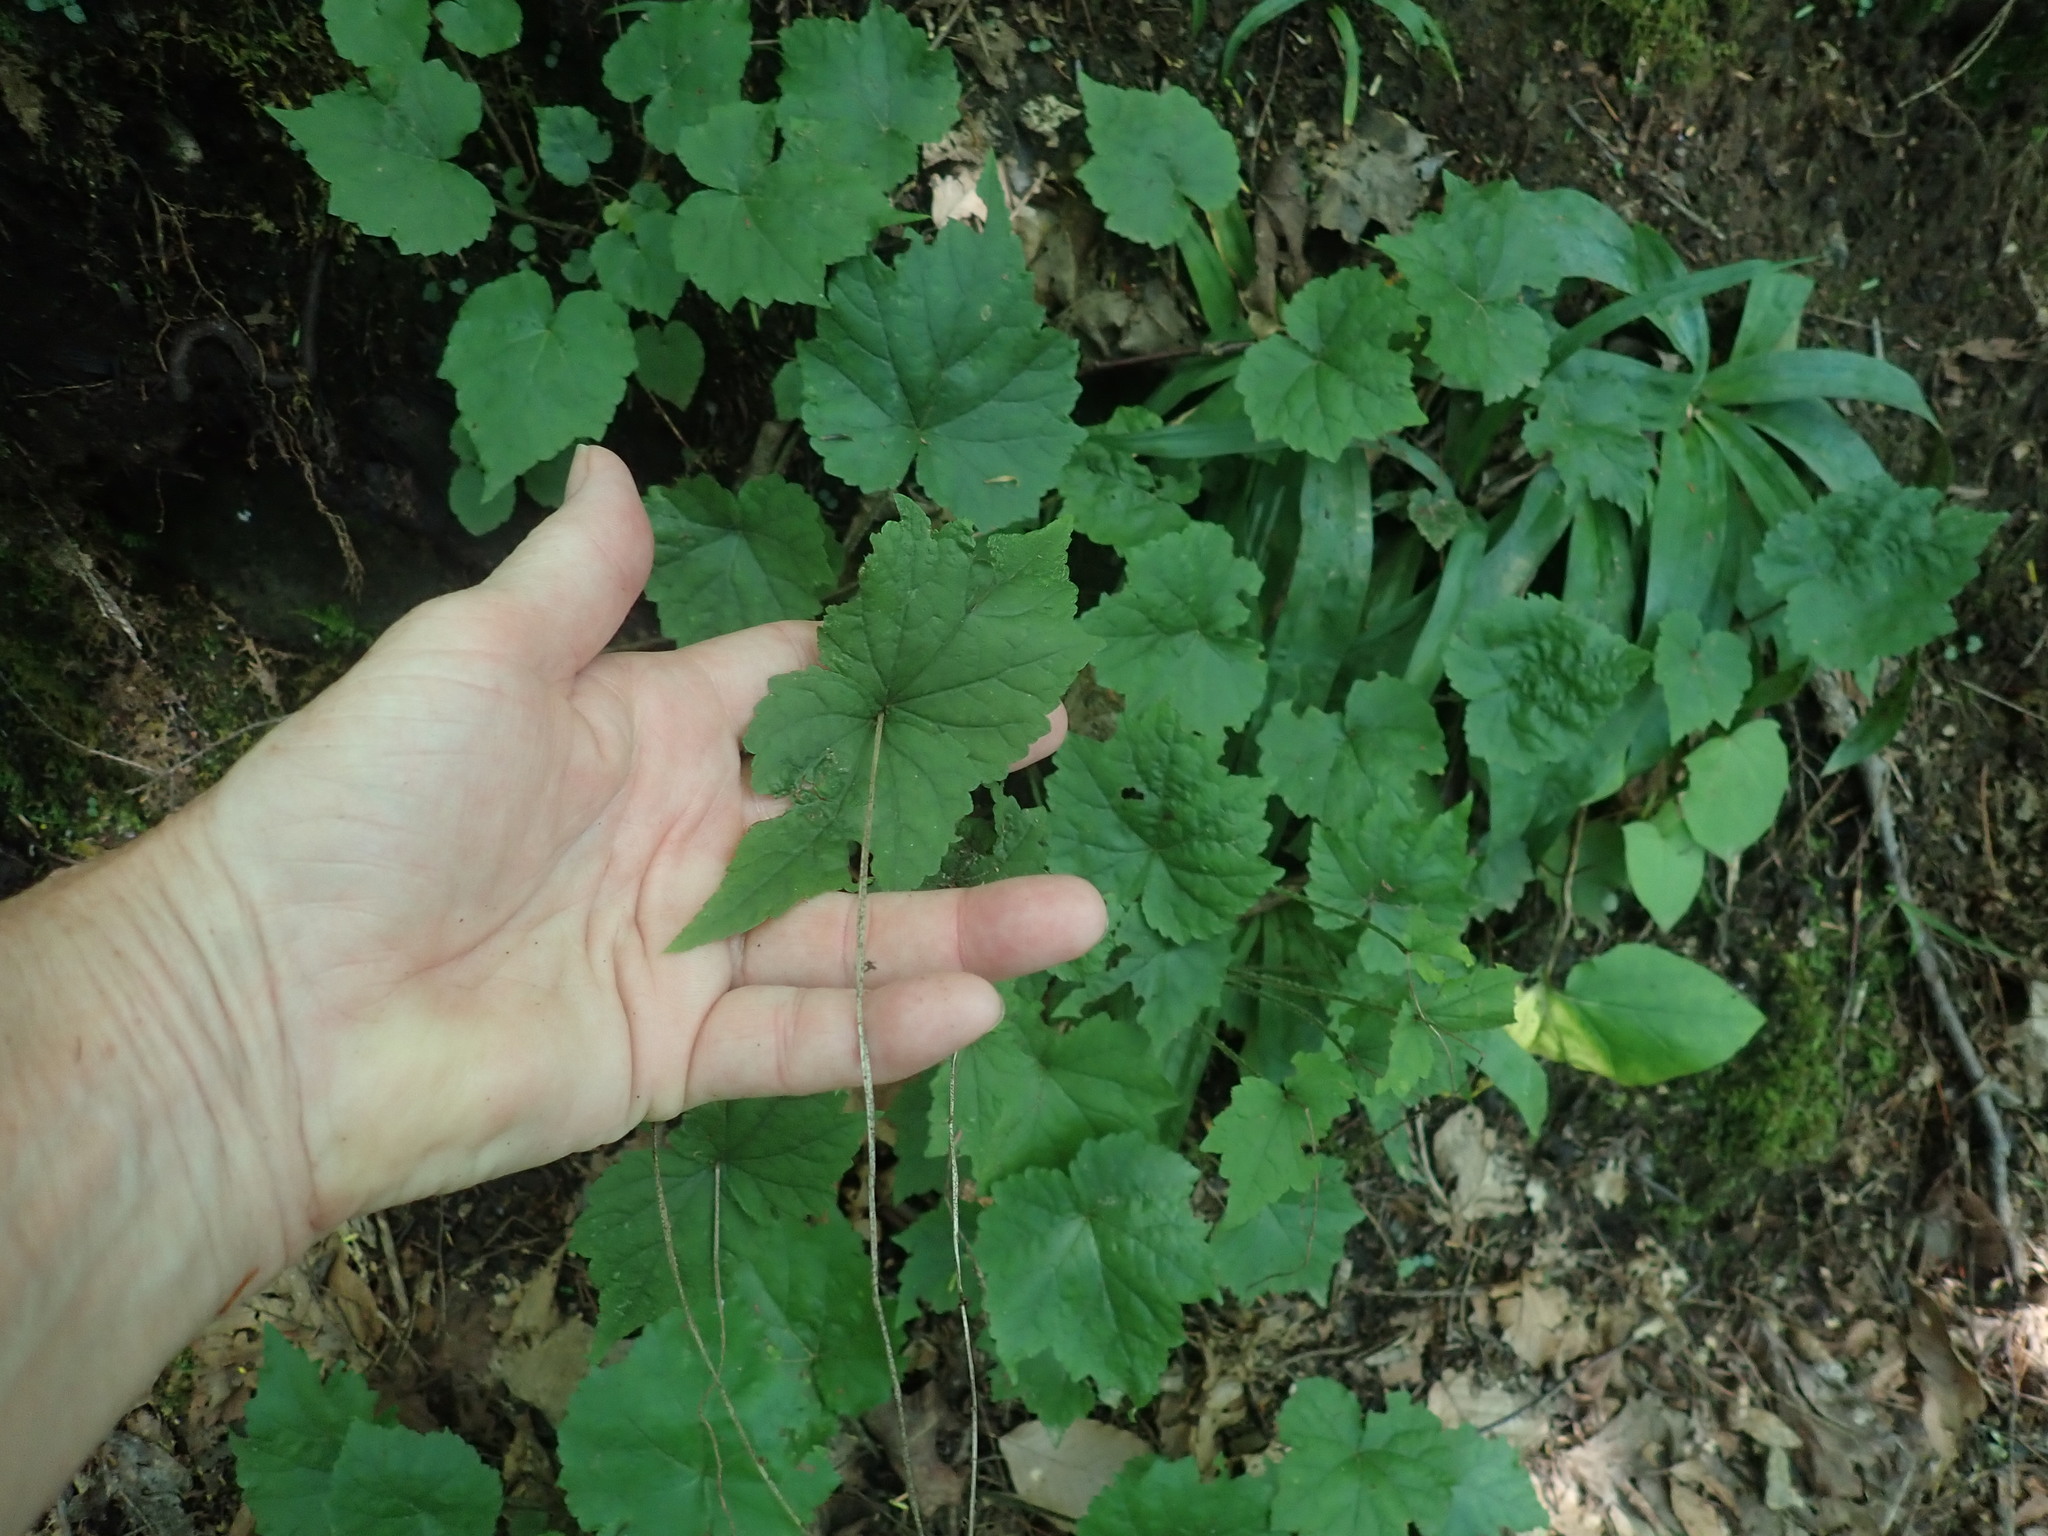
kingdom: Plantae
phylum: Tracheophyta
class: Magnoliopsida
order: Saxifragales
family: Saxifragaceae
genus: Mitella
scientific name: Mitella diphylla
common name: Coolwort
